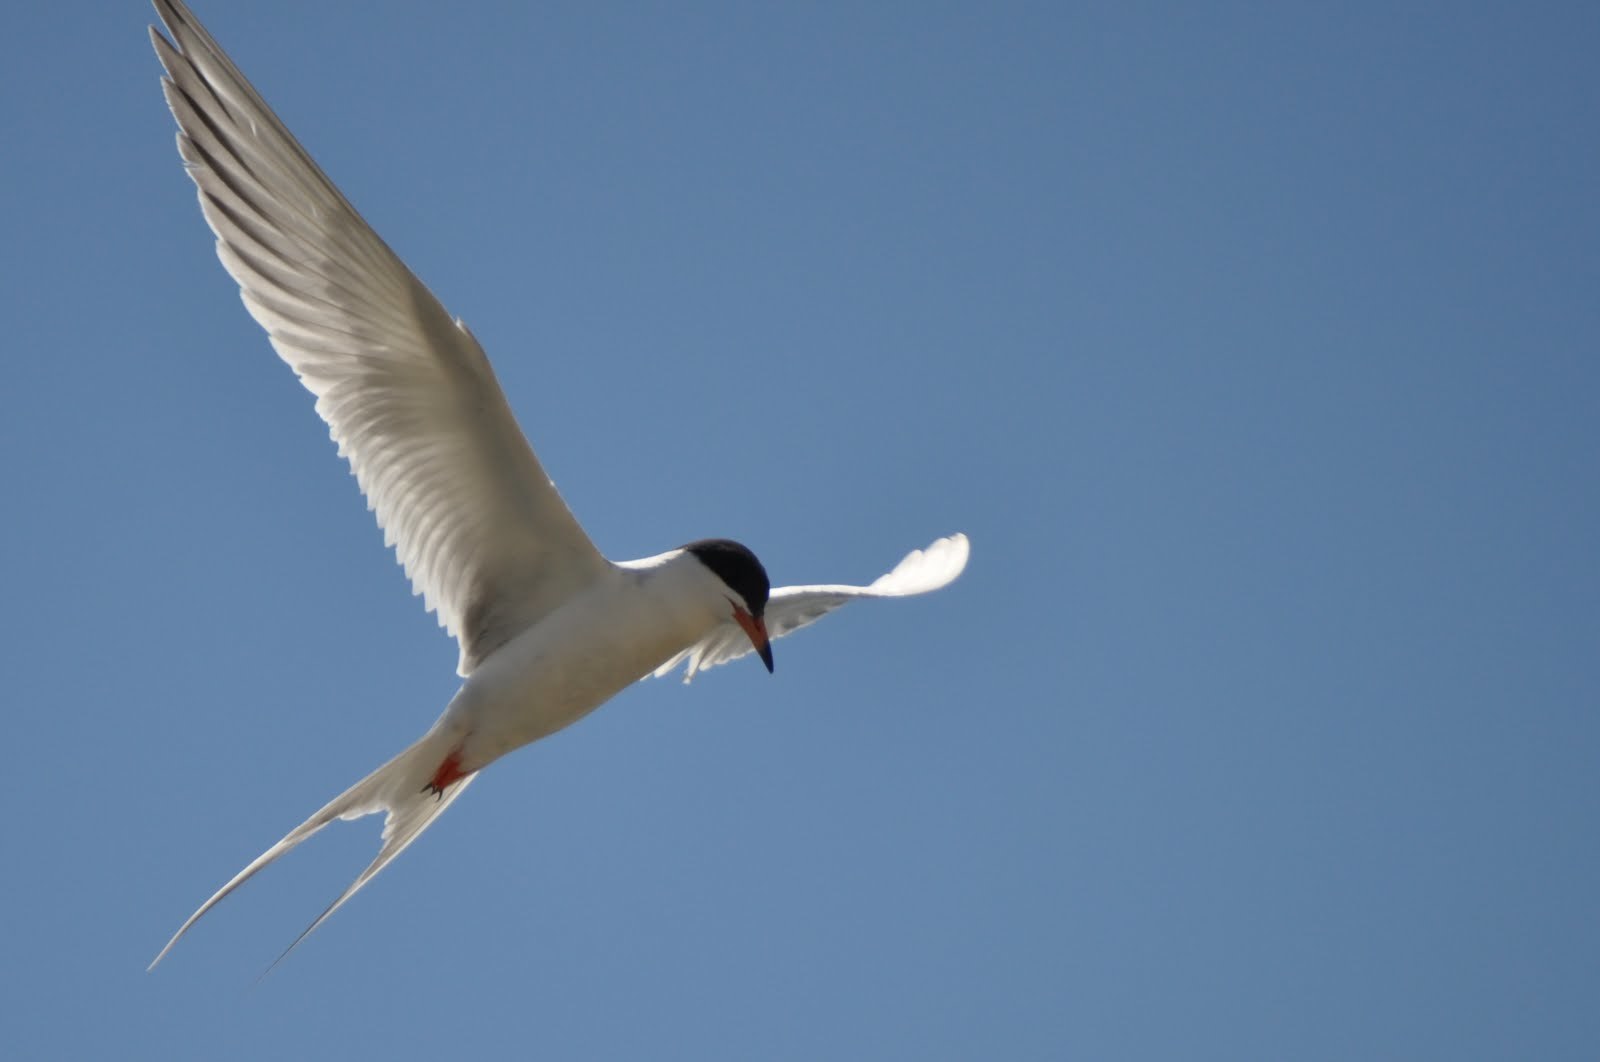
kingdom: Animalia
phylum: Chordata
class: Aves
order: Charadriiformes
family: Laridae
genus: Sterna
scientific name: Sterna forsteri
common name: Forster's tern
